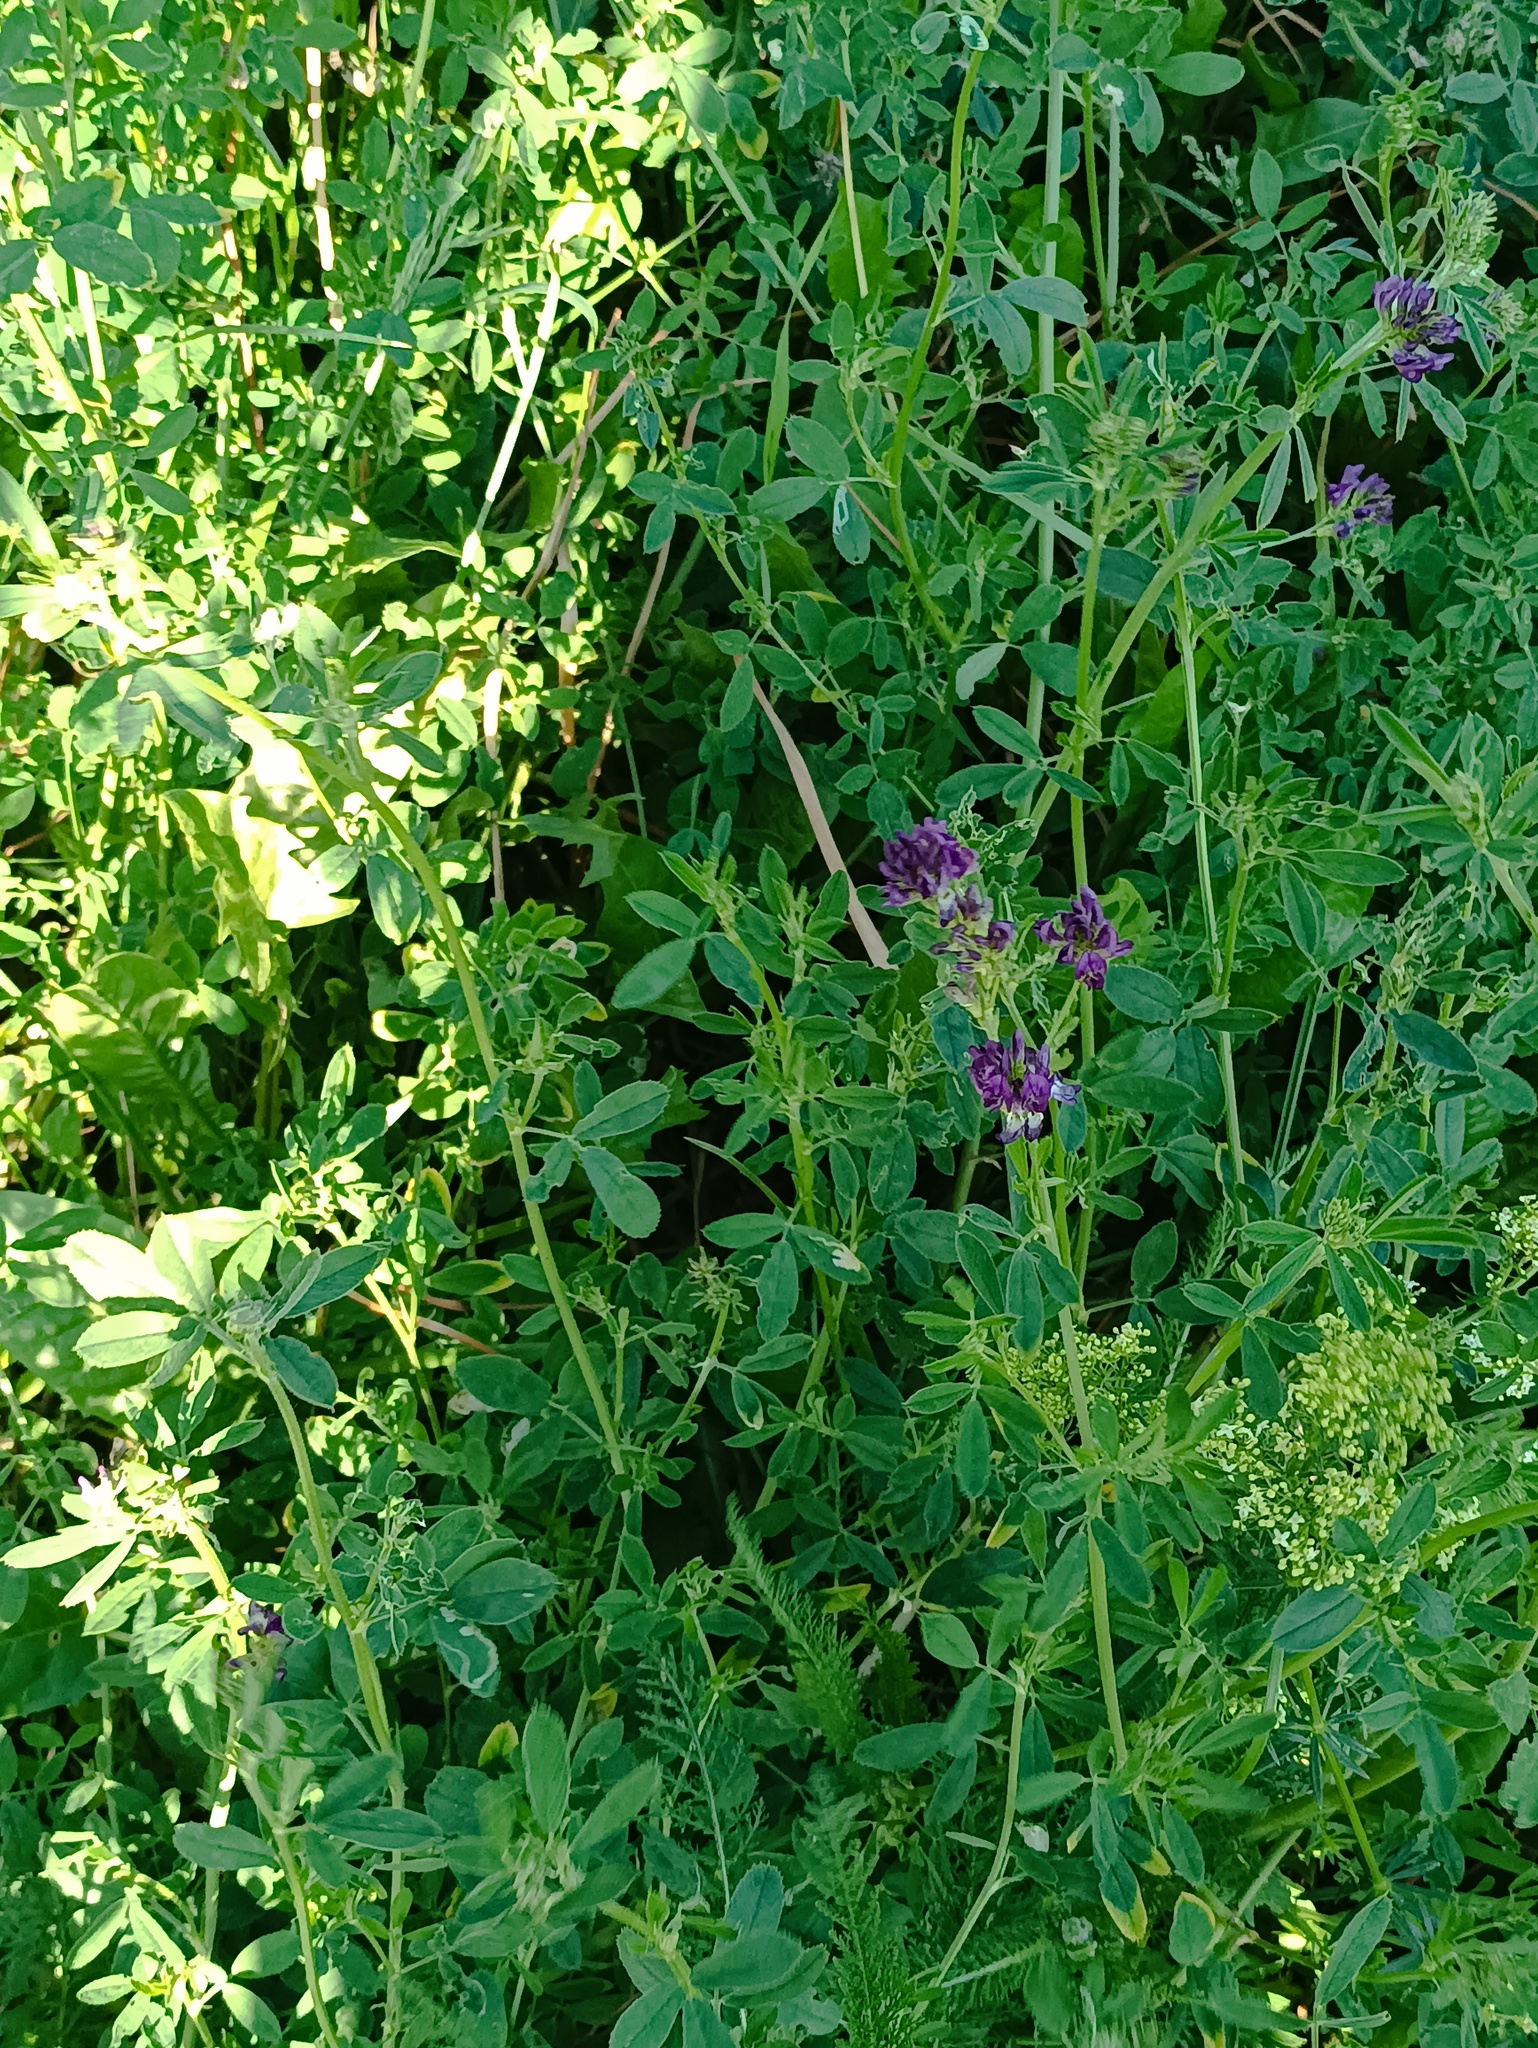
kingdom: Plantae
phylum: Tracheophyta
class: Magnoliopsida
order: Fabales
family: Fabaceae
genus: Medicago
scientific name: Medicago sativa
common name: Alfalfa
